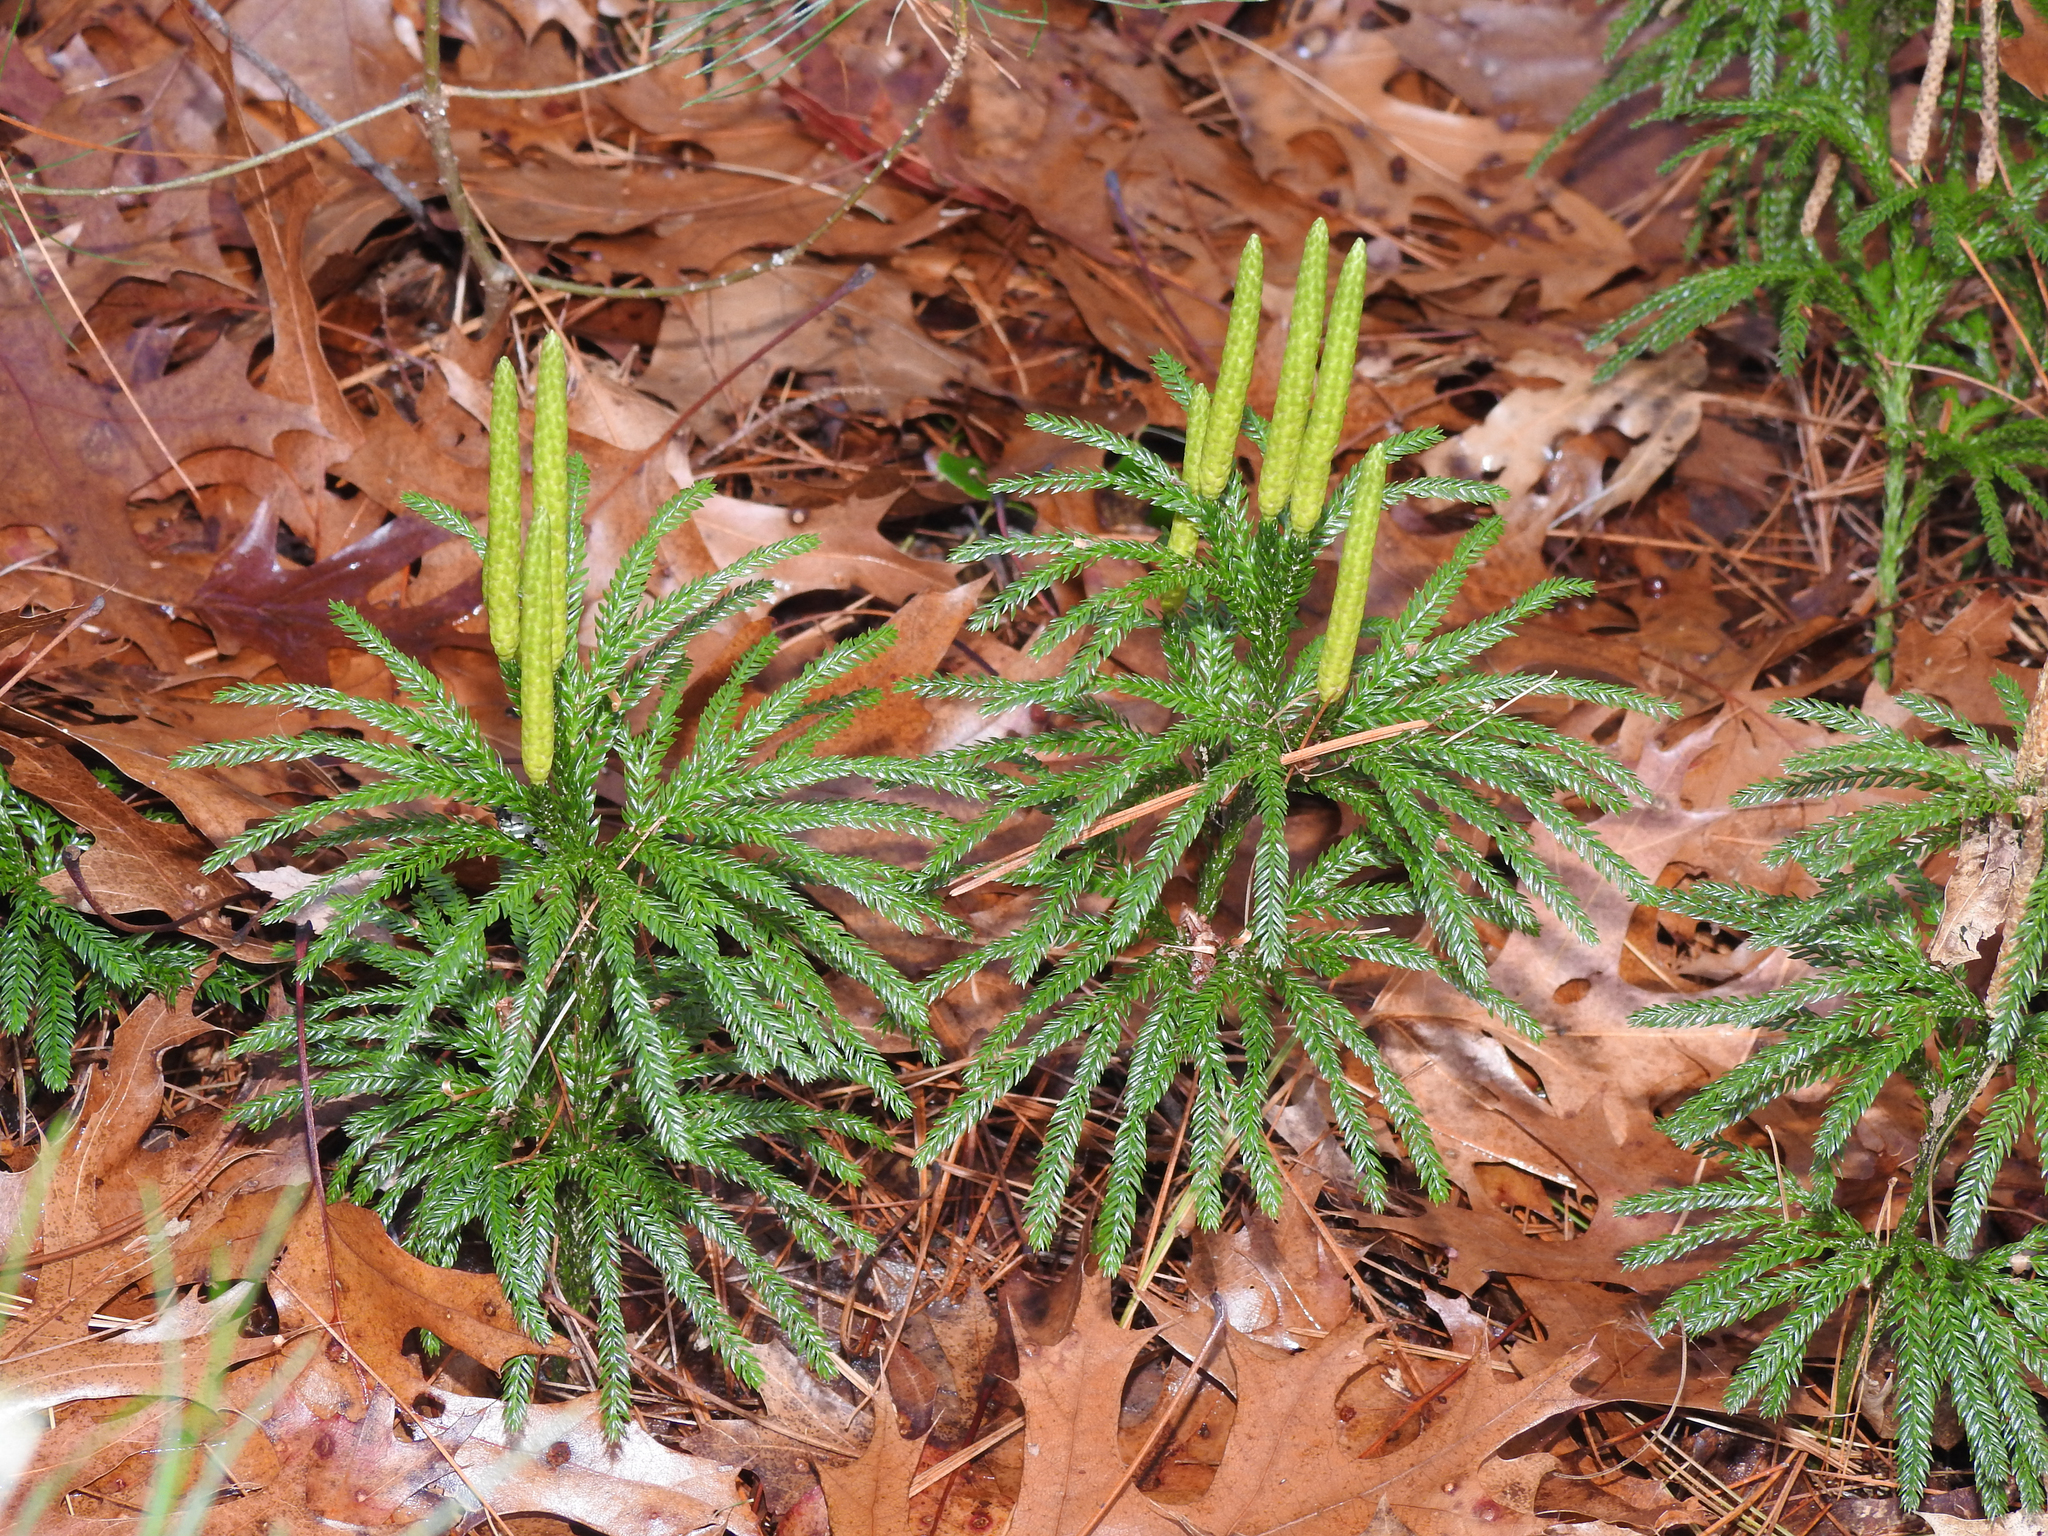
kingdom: Plantae
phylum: Tracheophyta
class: Lycopodiopsida
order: Lycopodiales
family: Lycopodiaceae
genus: Dendrolycopodium
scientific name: Dendrolycopodium obscurum
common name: Common ground-pine
